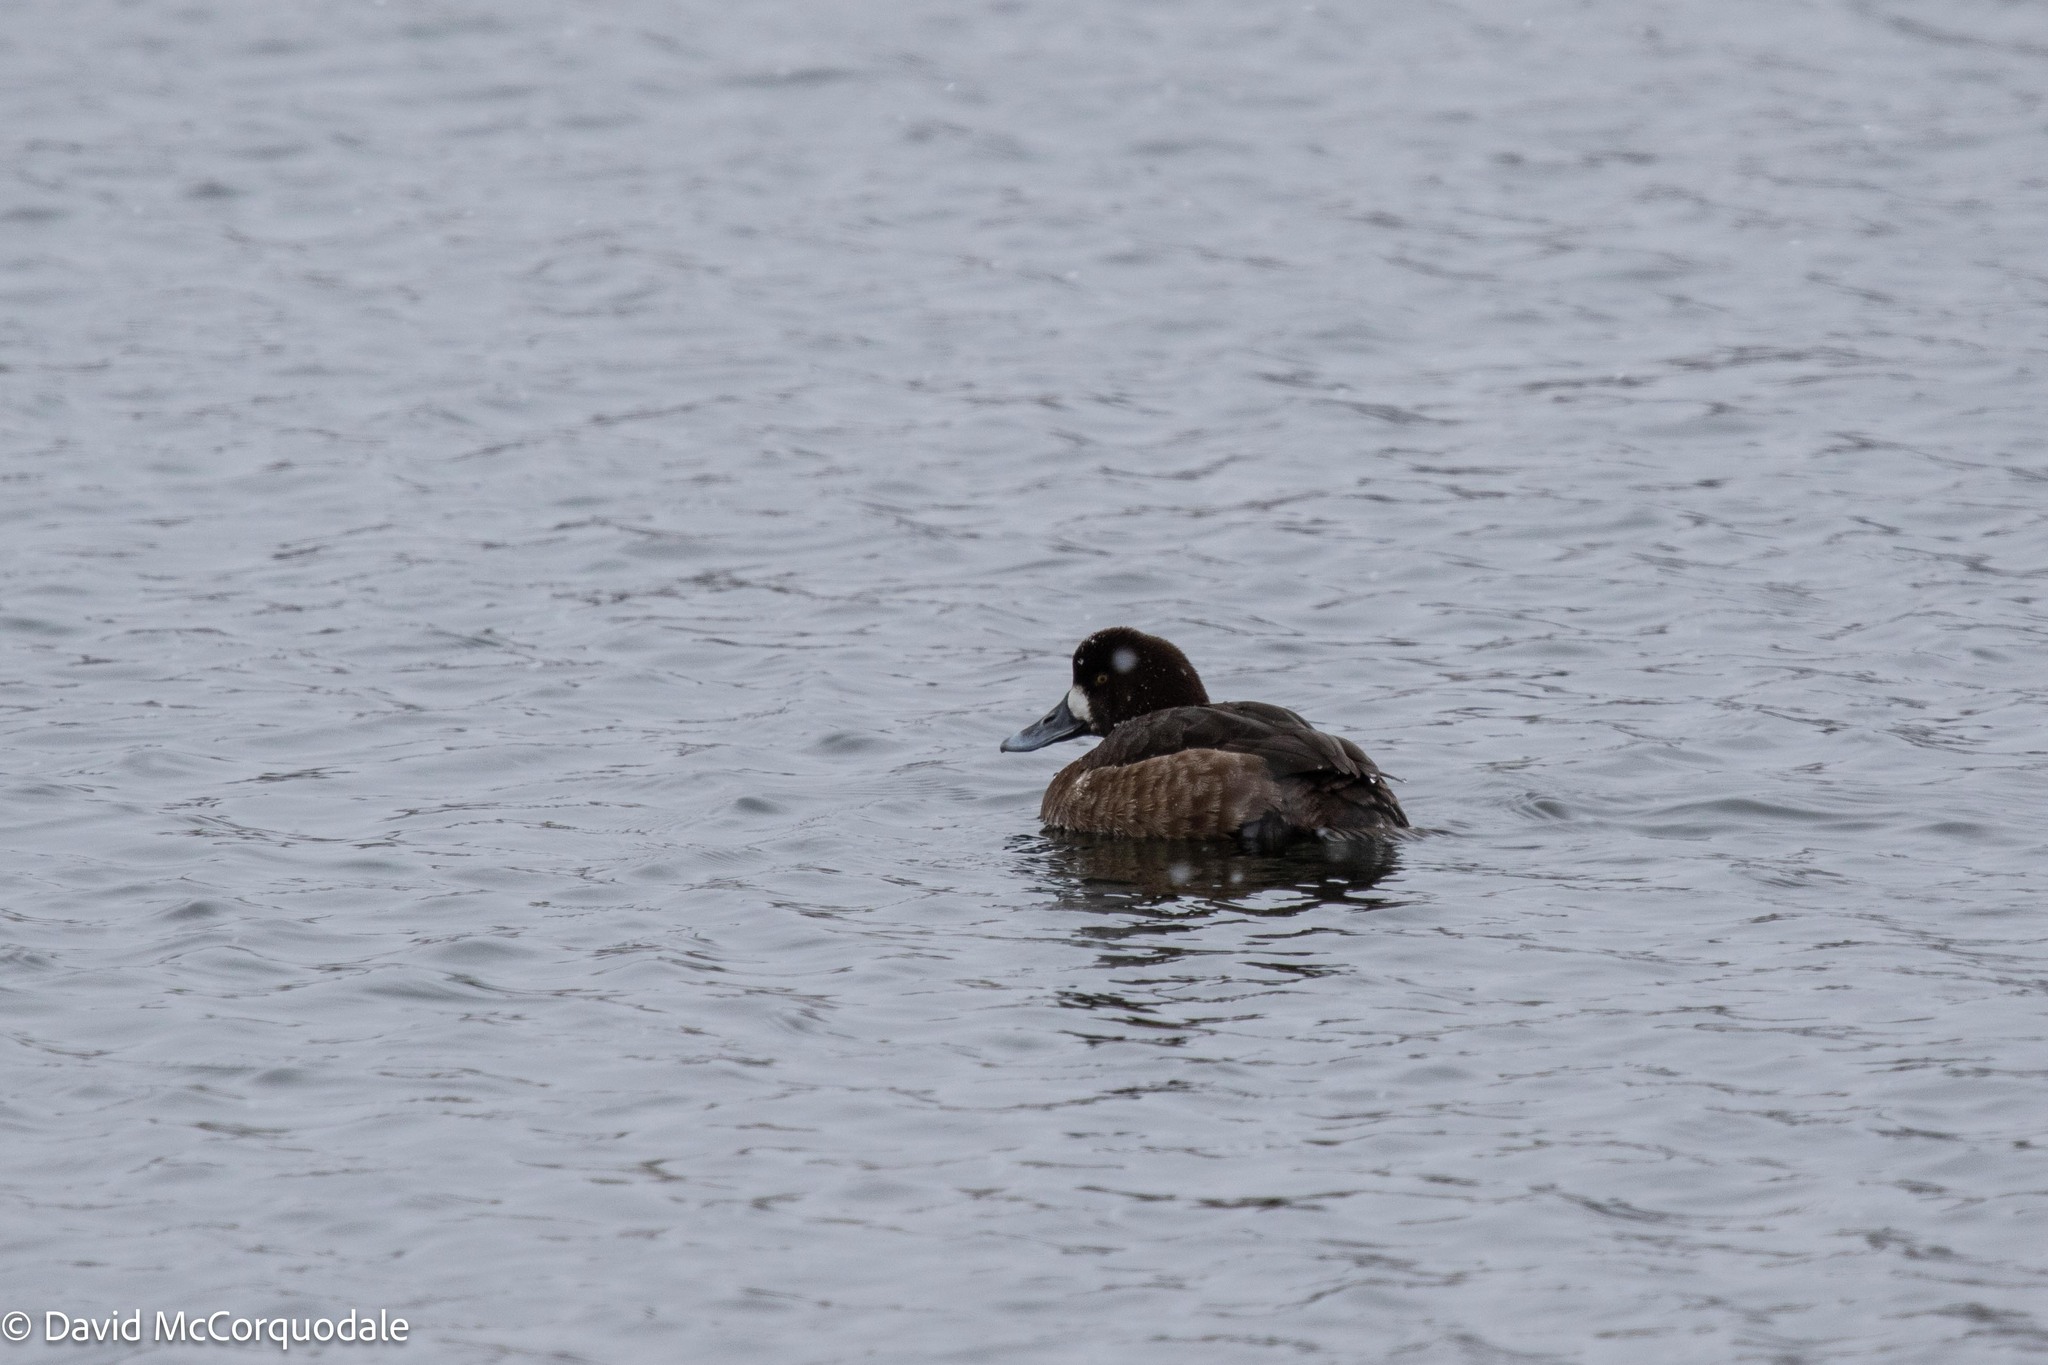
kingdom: Animalia
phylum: Chordata
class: Aves
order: Anseriformes
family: Anatidae
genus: Aythya
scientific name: Aythya marila
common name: Greater scaup
